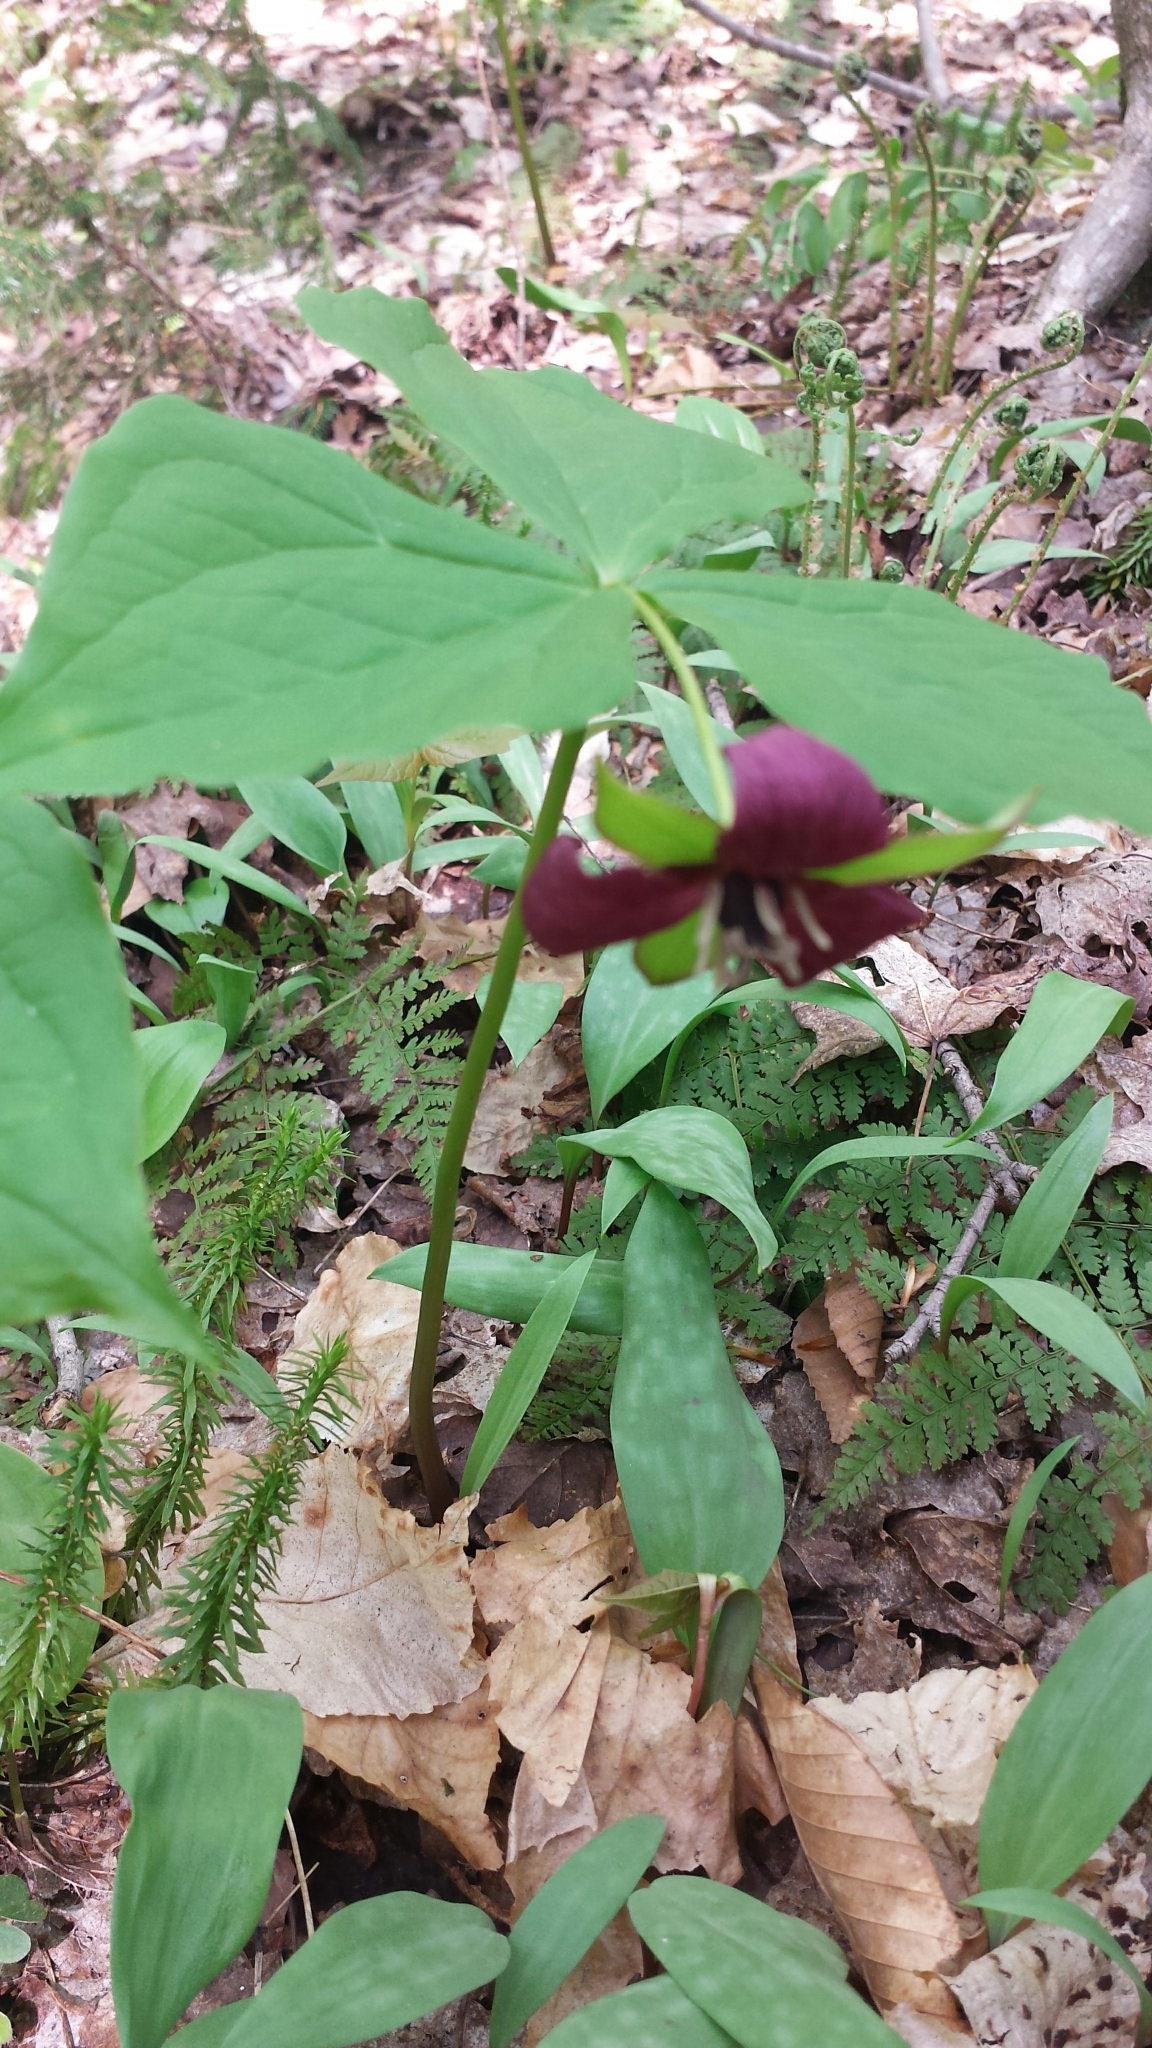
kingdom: Plantae
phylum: Tracheophyta
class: Liliopsida
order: Liliales
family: Melanthiaceae
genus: Trillium
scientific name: Trillium erectum
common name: Purple trillium
